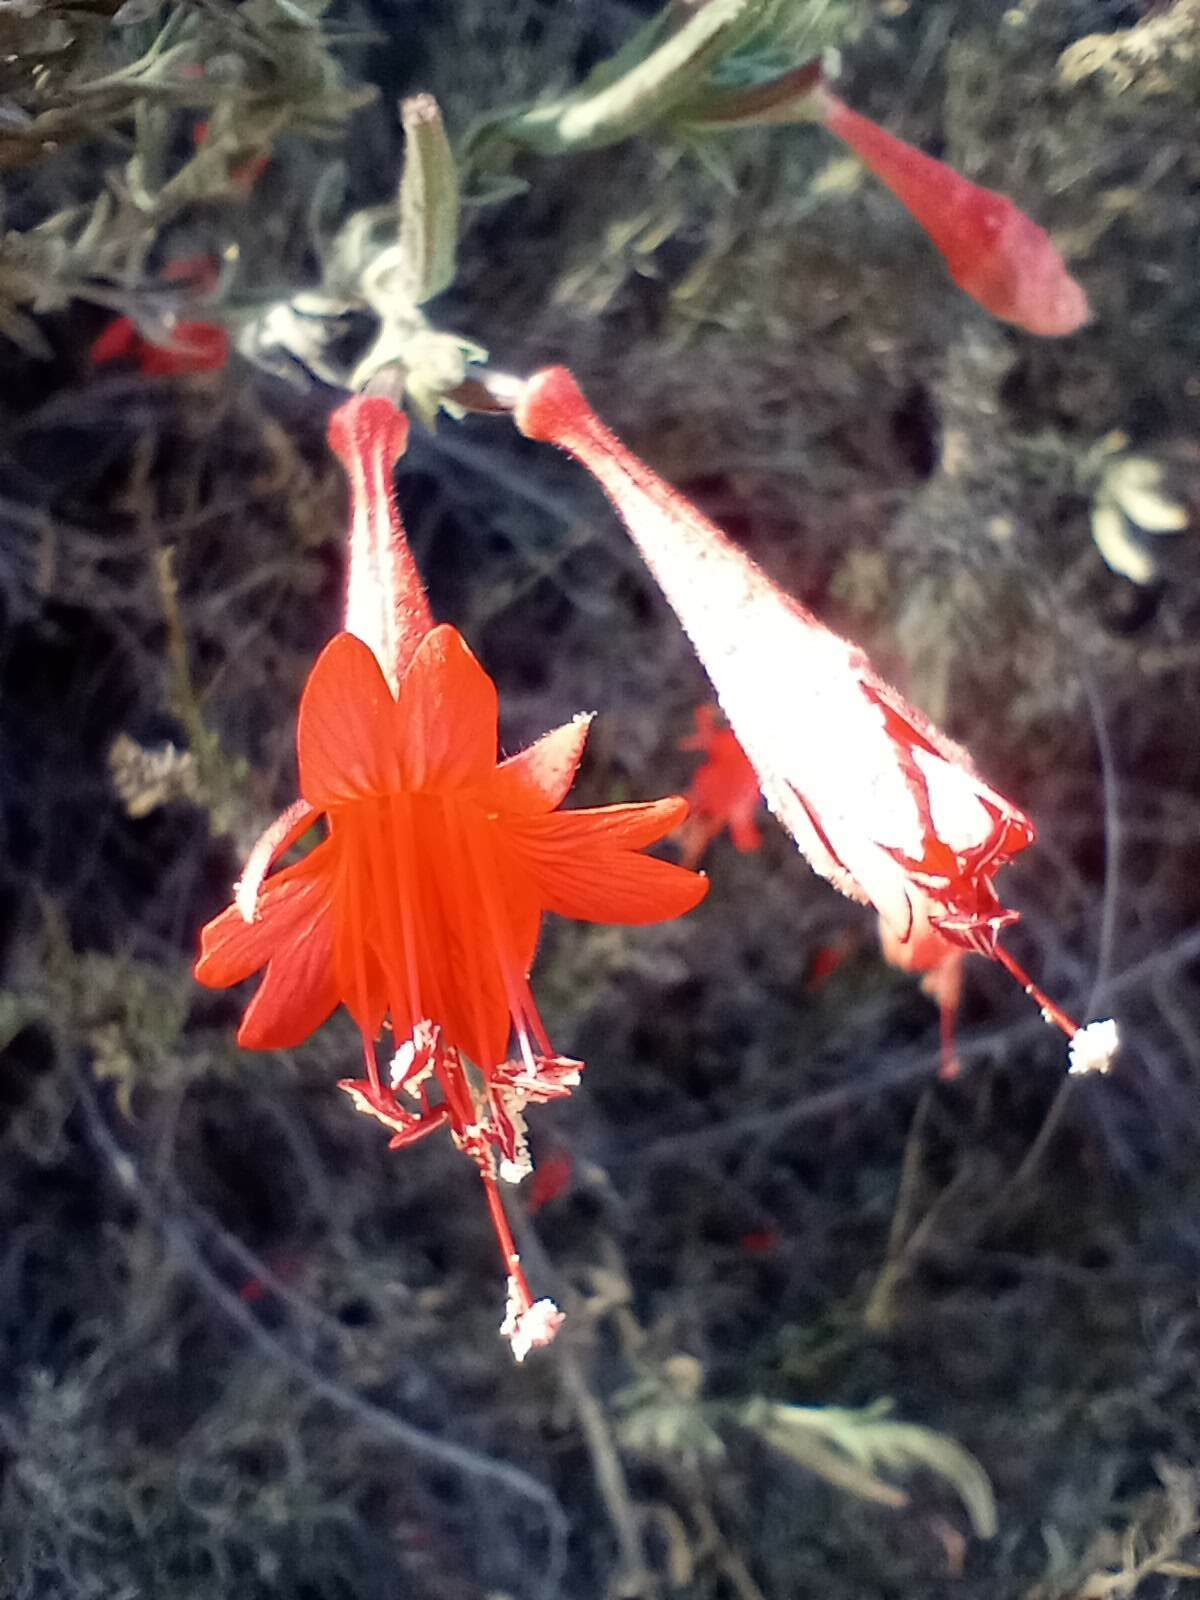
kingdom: Plantae
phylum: Tracheophyta
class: Magnoliopsida
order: Myrtales
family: Onagraceae
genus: Epilobium
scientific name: Epilobium canum
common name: California-fuchsia
